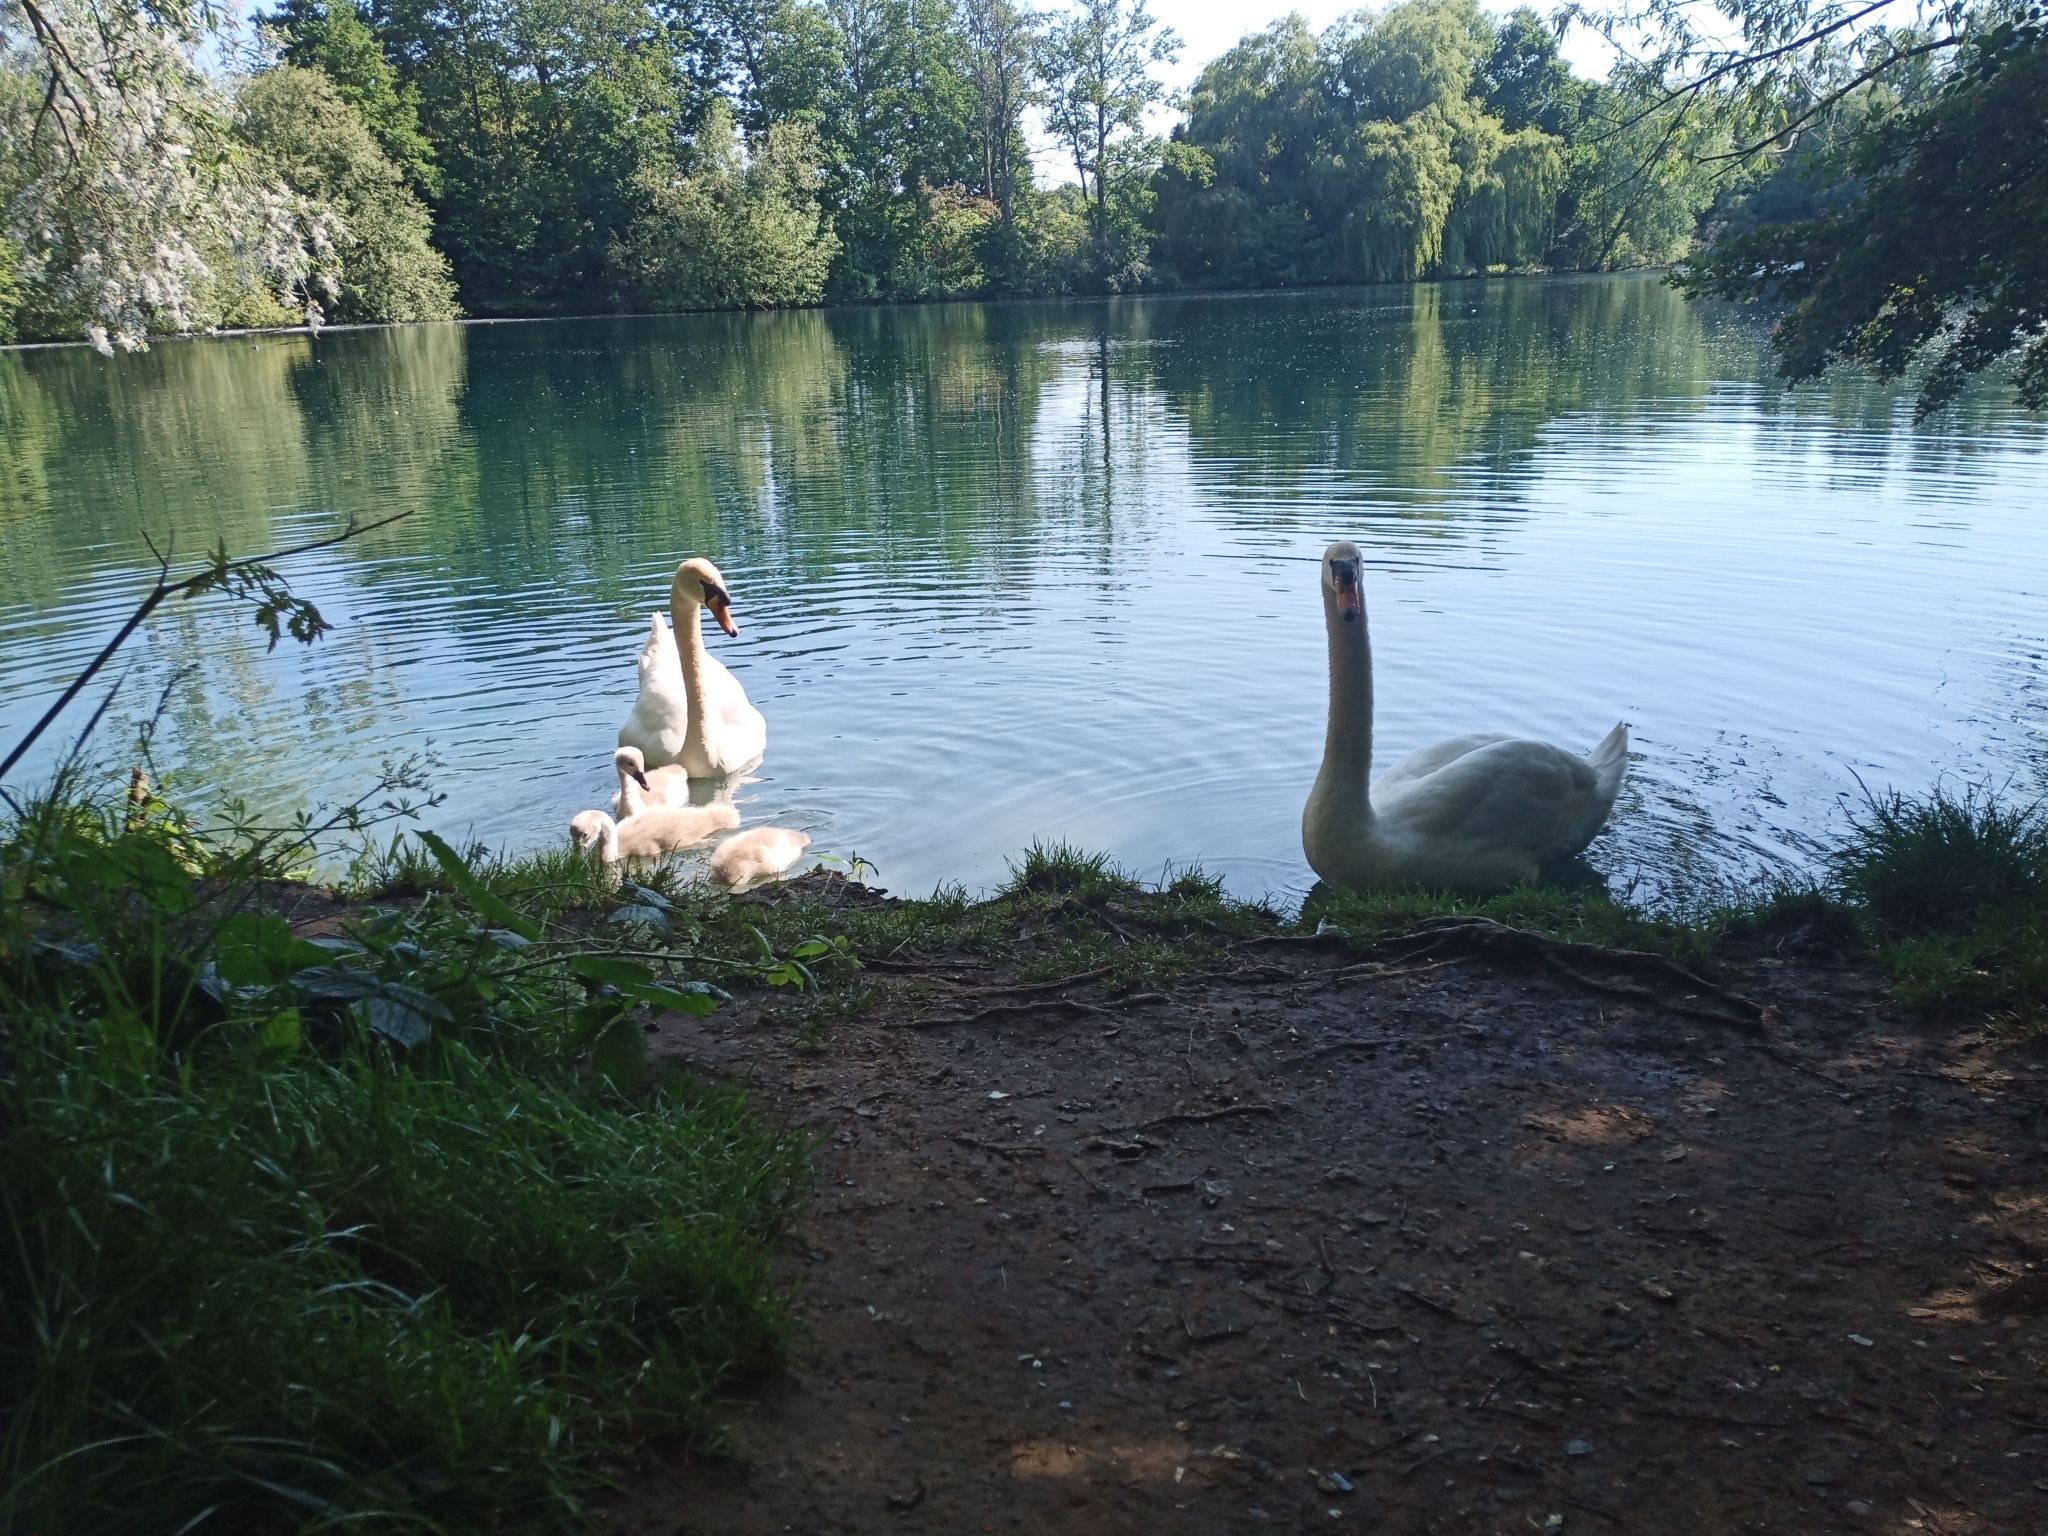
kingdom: Animalia
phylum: Chordata
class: Aves
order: Anseriformes
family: Anatidae
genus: Cygnus
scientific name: Cygnus olor
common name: Mute swan
